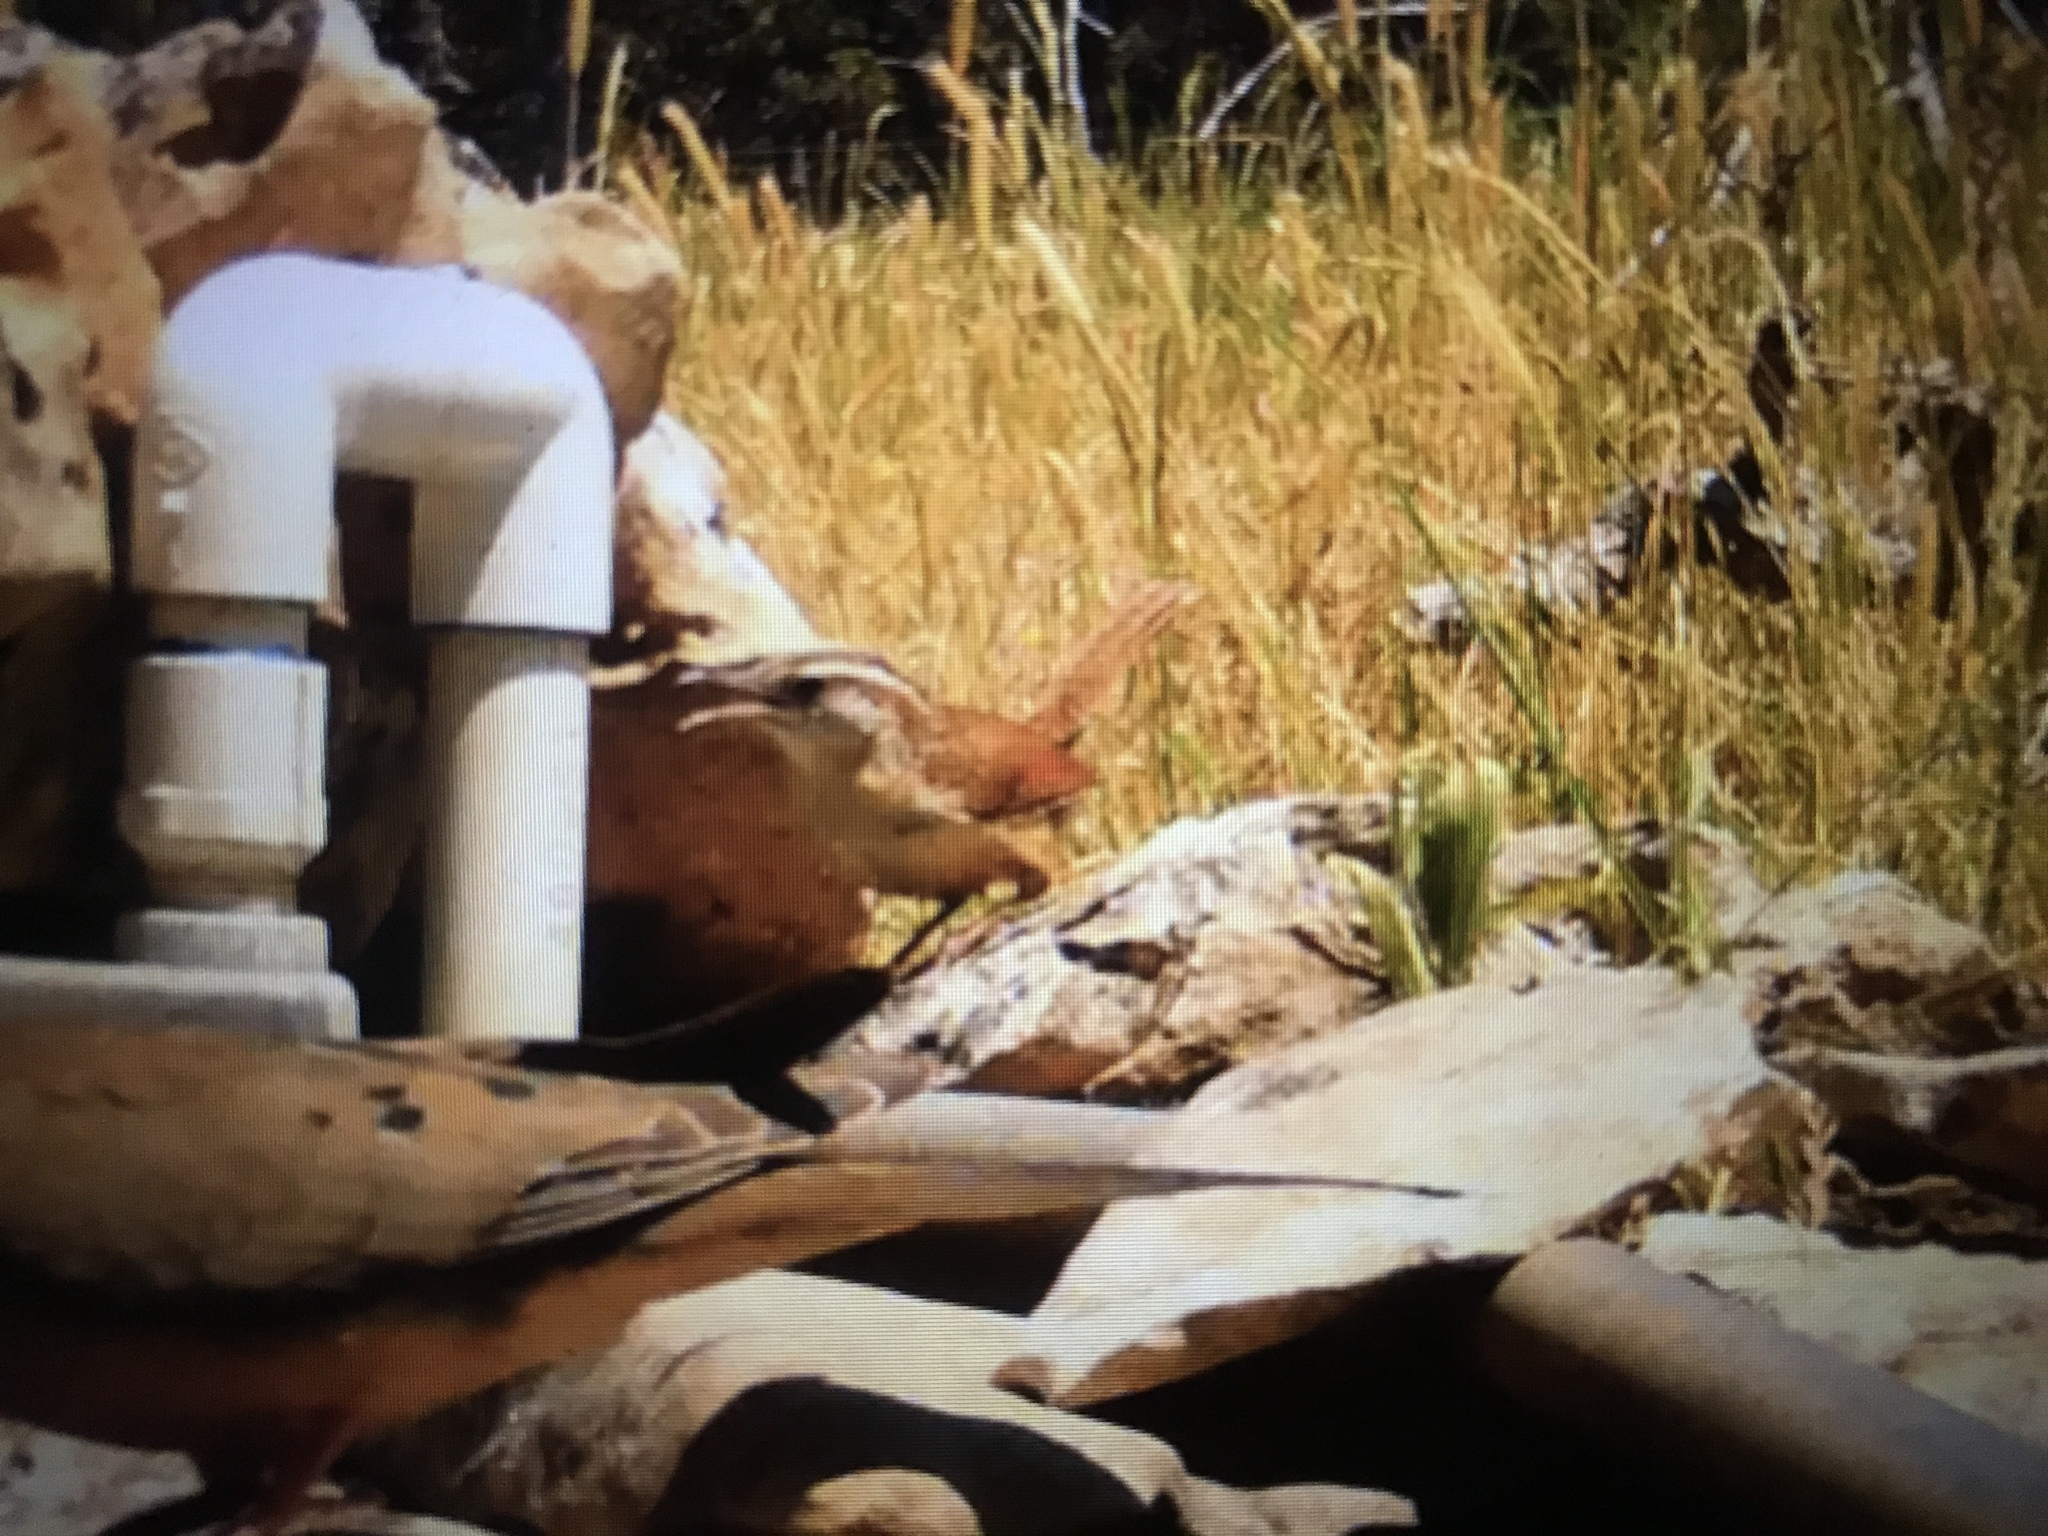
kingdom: Animalia
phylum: Chordata
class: Aves
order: Passeriformes
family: Troglodytidae
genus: Thryothorus
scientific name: Thryothorus ludovicianus
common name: Carolina wren
